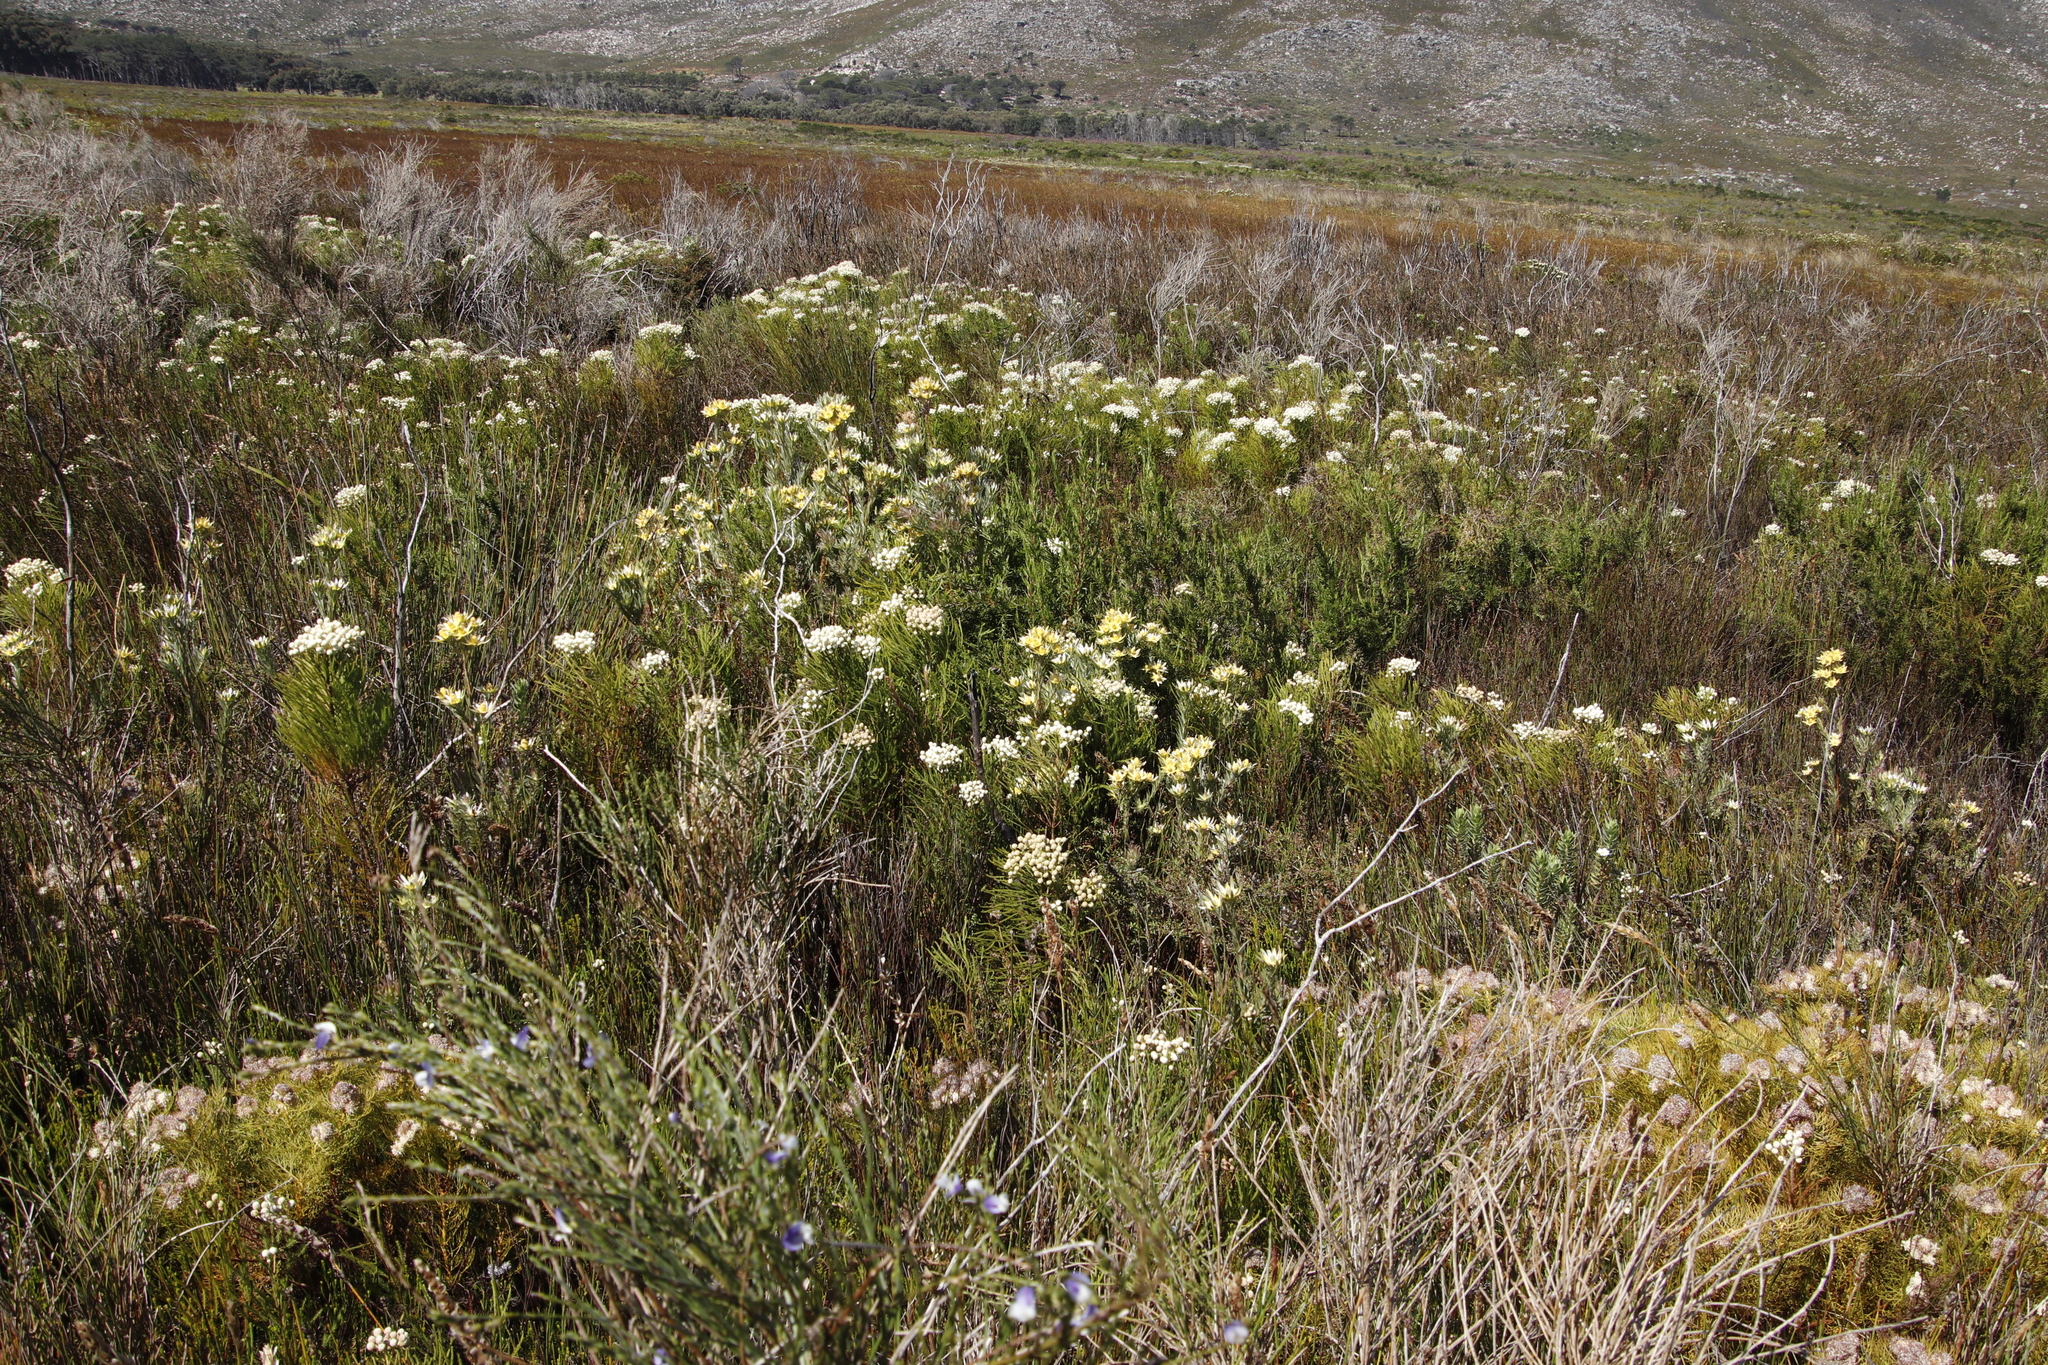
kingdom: Plantae
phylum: Tracheophyta
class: Magnoliopsida
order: Fabales
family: Fabaceae
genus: Psoralea
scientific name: Psoralea aphylla
